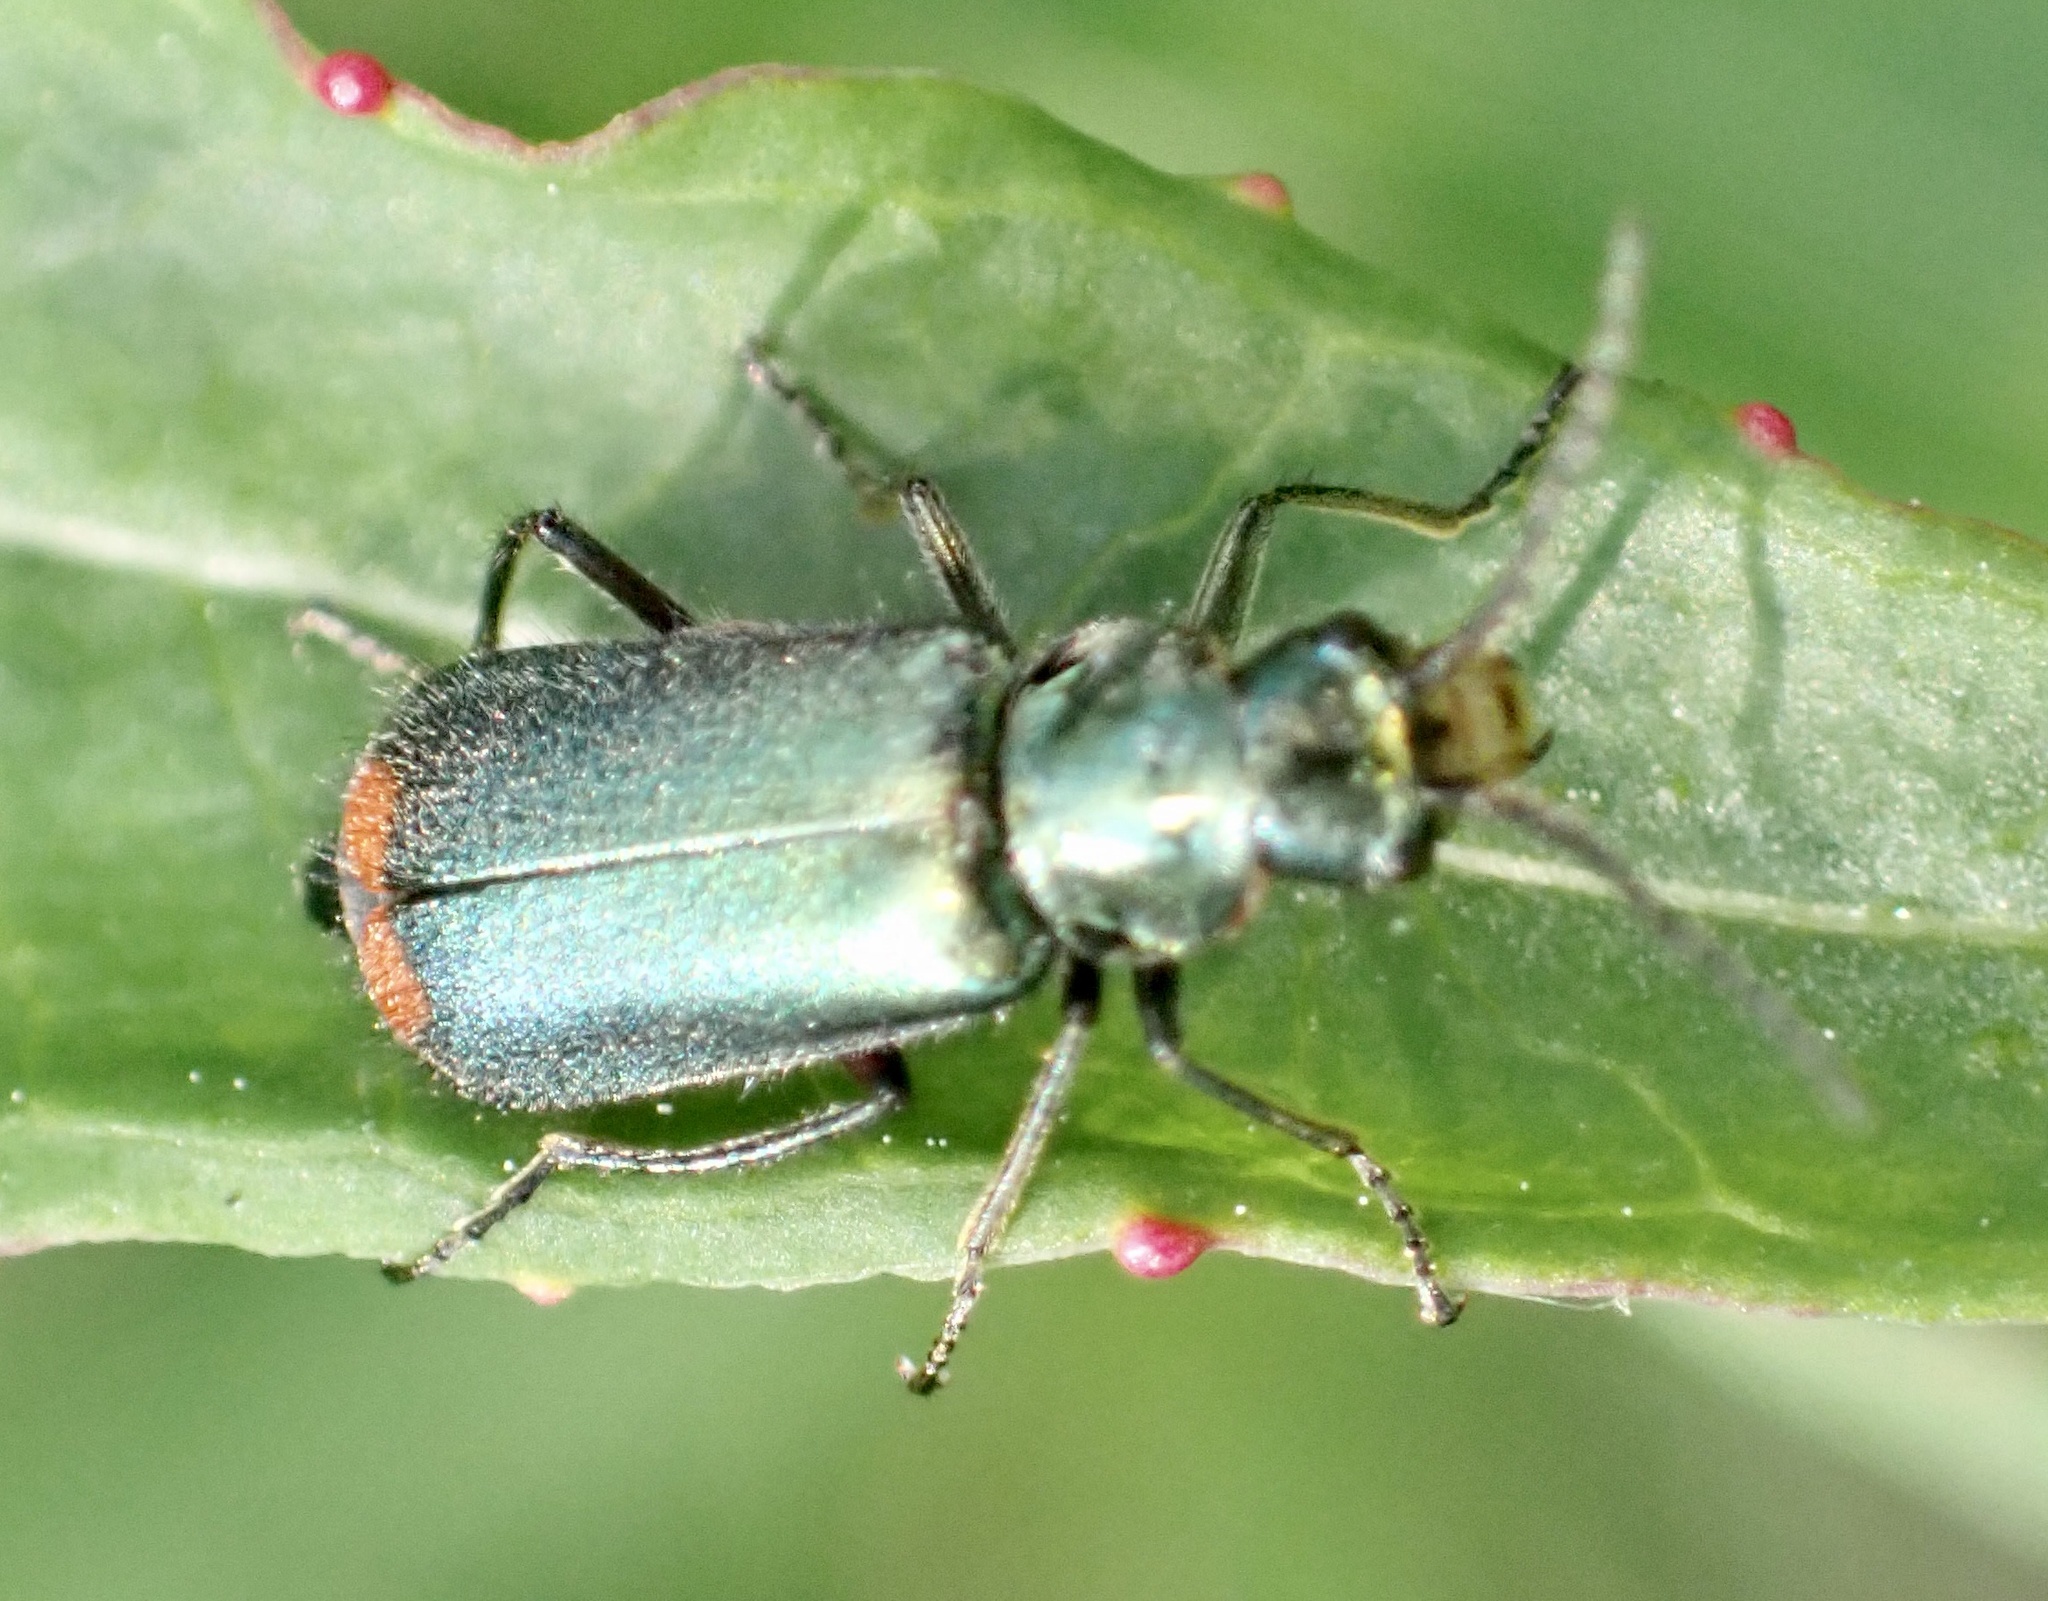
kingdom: Animalia
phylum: Arthropoda
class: Insecta
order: Coleoptera
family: Melyridae
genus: Malachius
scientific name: Malachius bipustulatus
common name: Malachite beetle
